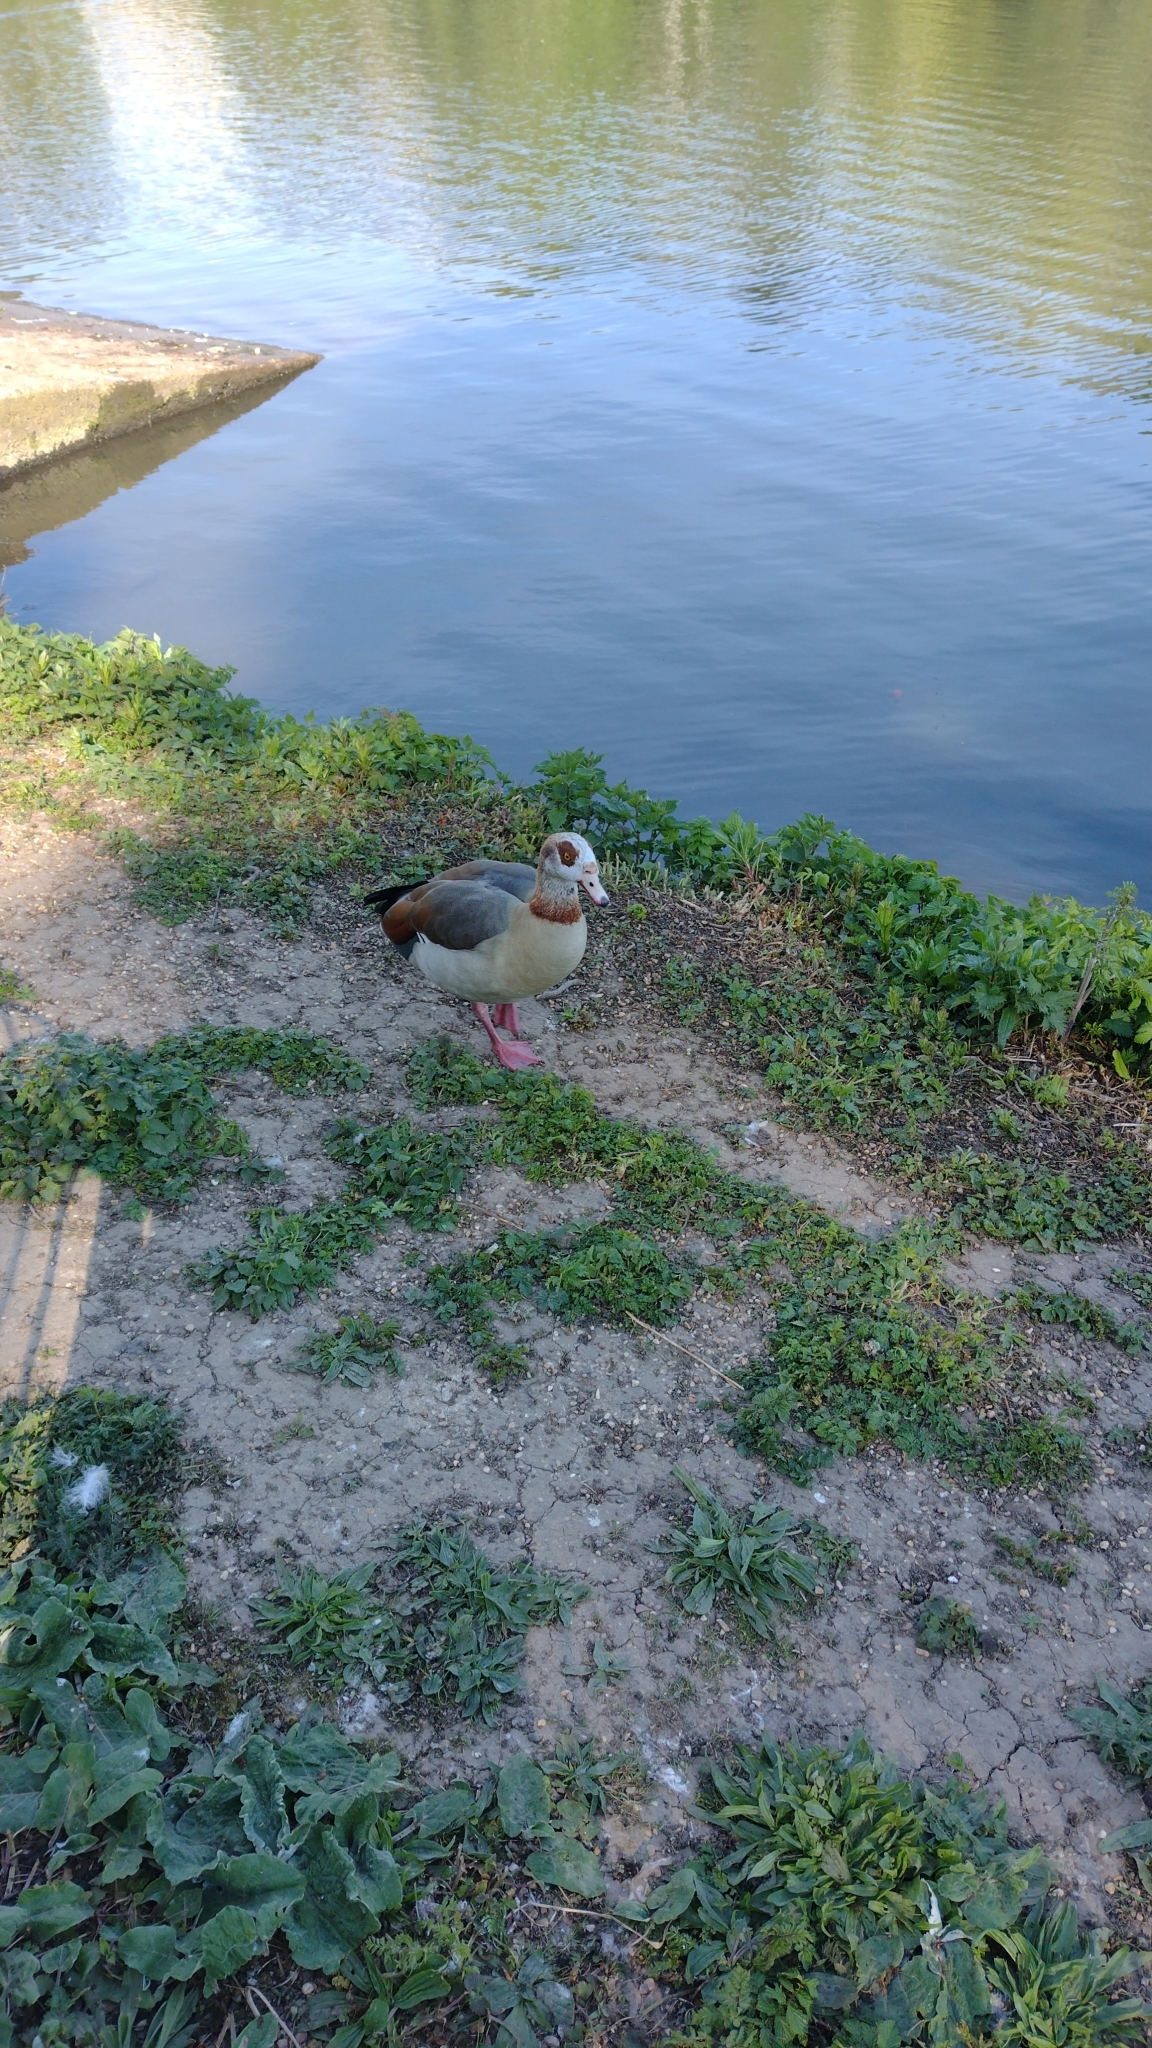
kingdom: Animalia
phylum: Chordata
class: Aves
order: Anseriformes
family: Anatidae
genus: Alopochen
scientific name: Alopochen aegyptiaca
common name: Egyptian goose
